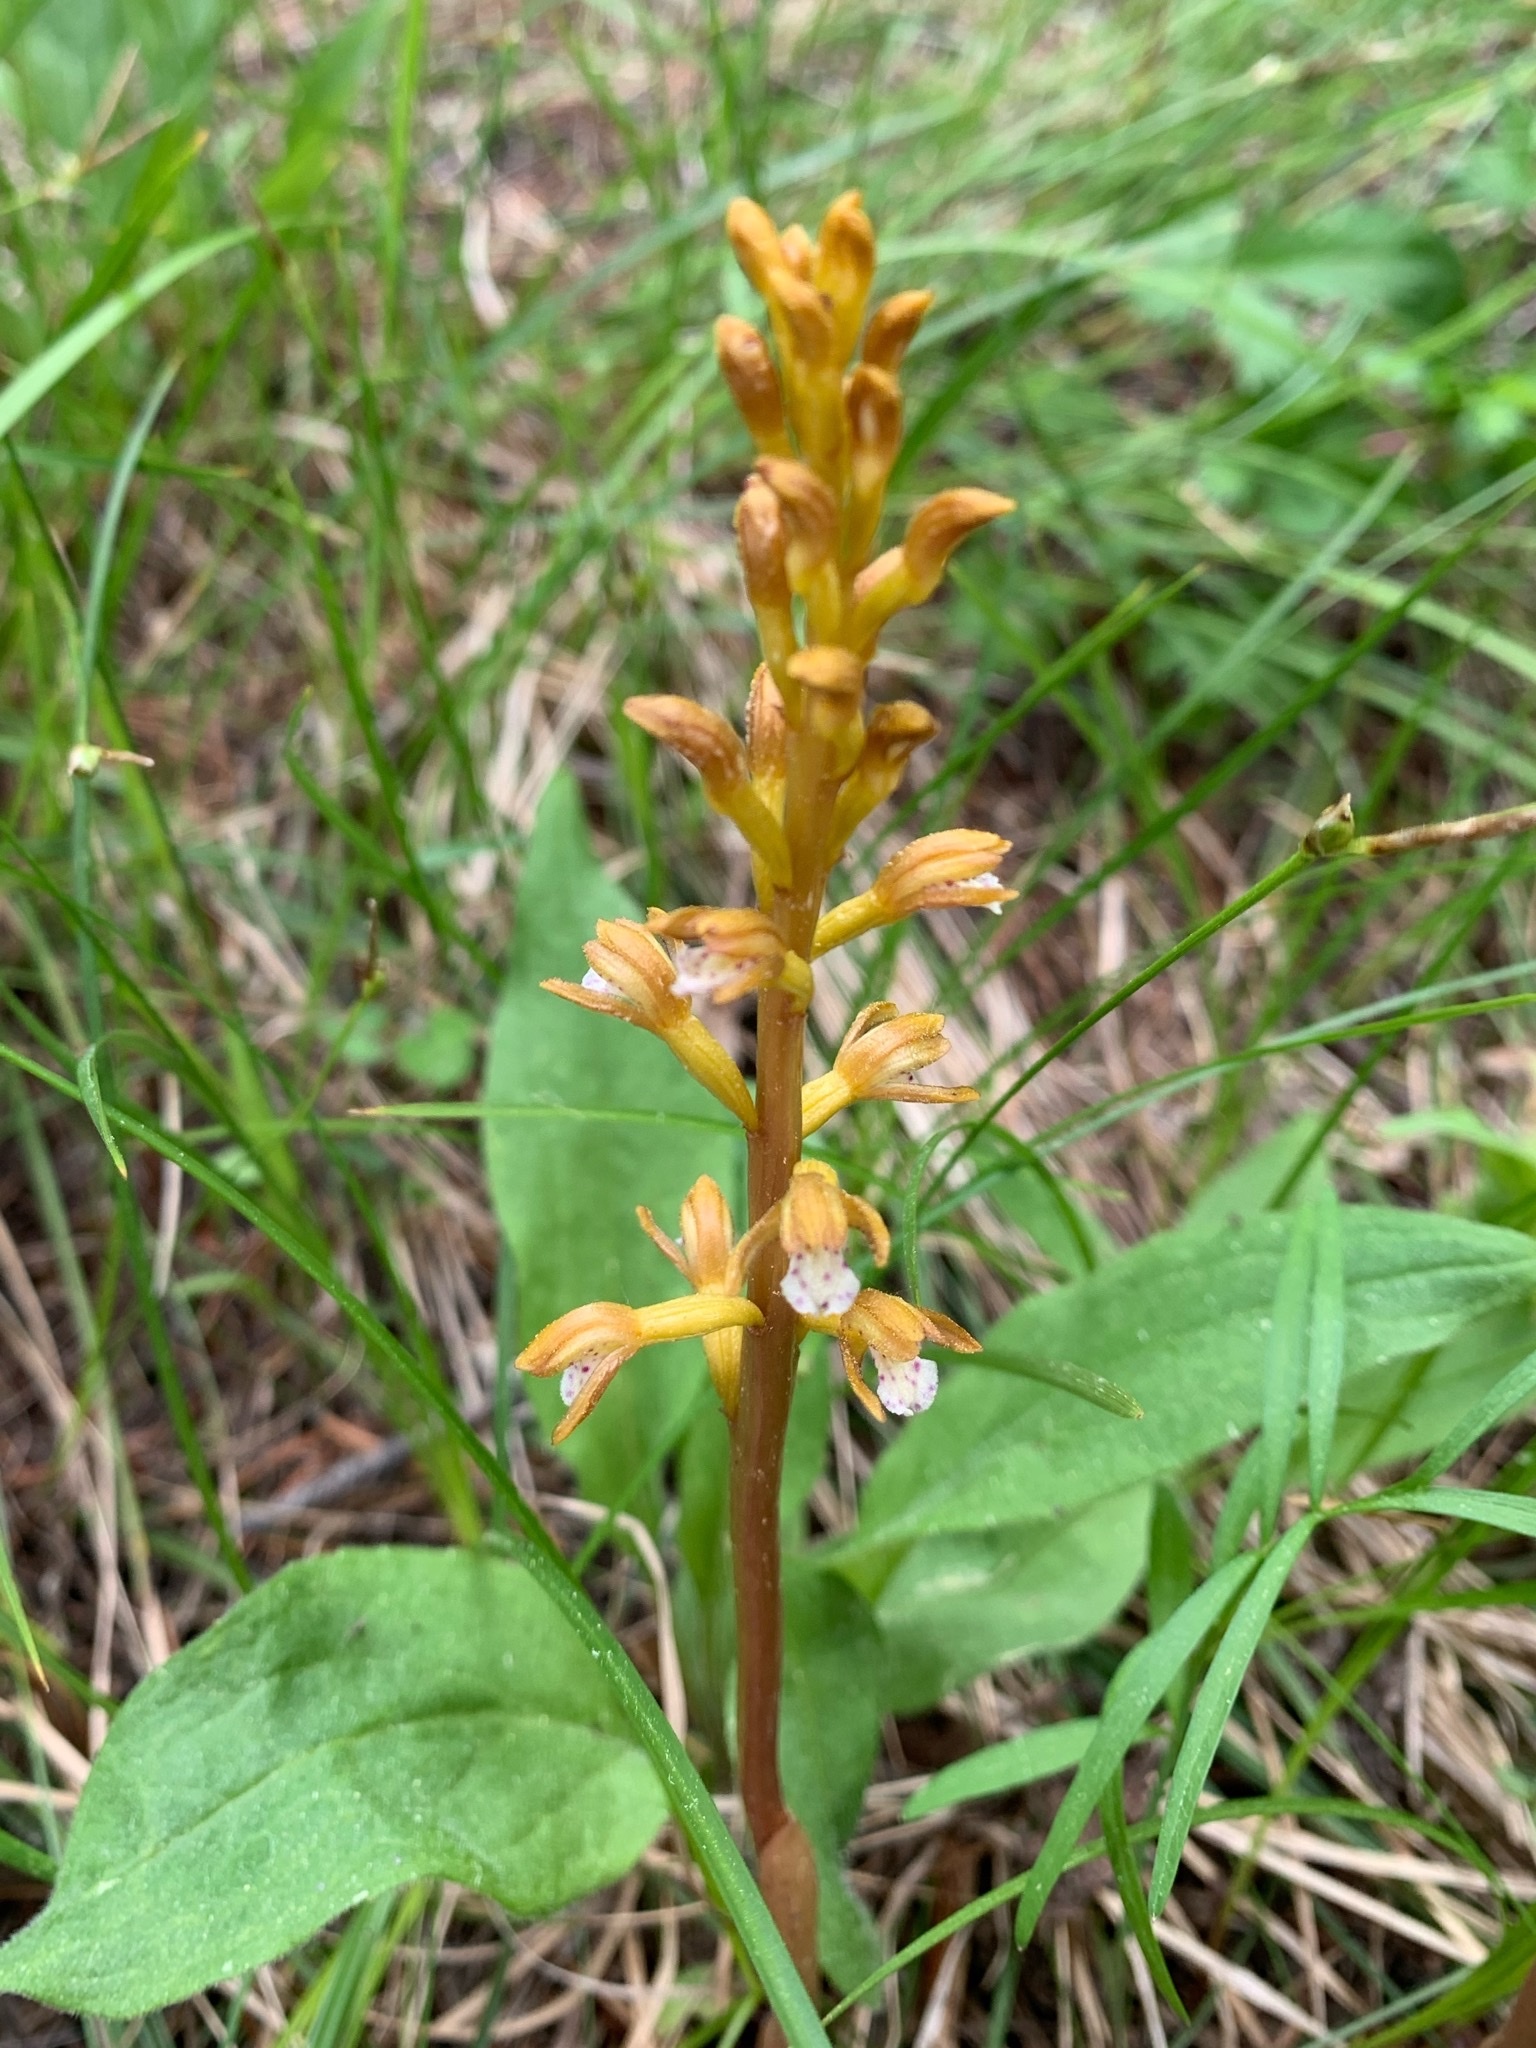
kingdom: Plantae
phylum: Tracheophyta
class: Liliopsida
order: Asparagales
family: Orchidaceae
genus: Corallorhiza
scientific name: Corallorhiza maculata
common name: Spotted coralroot
